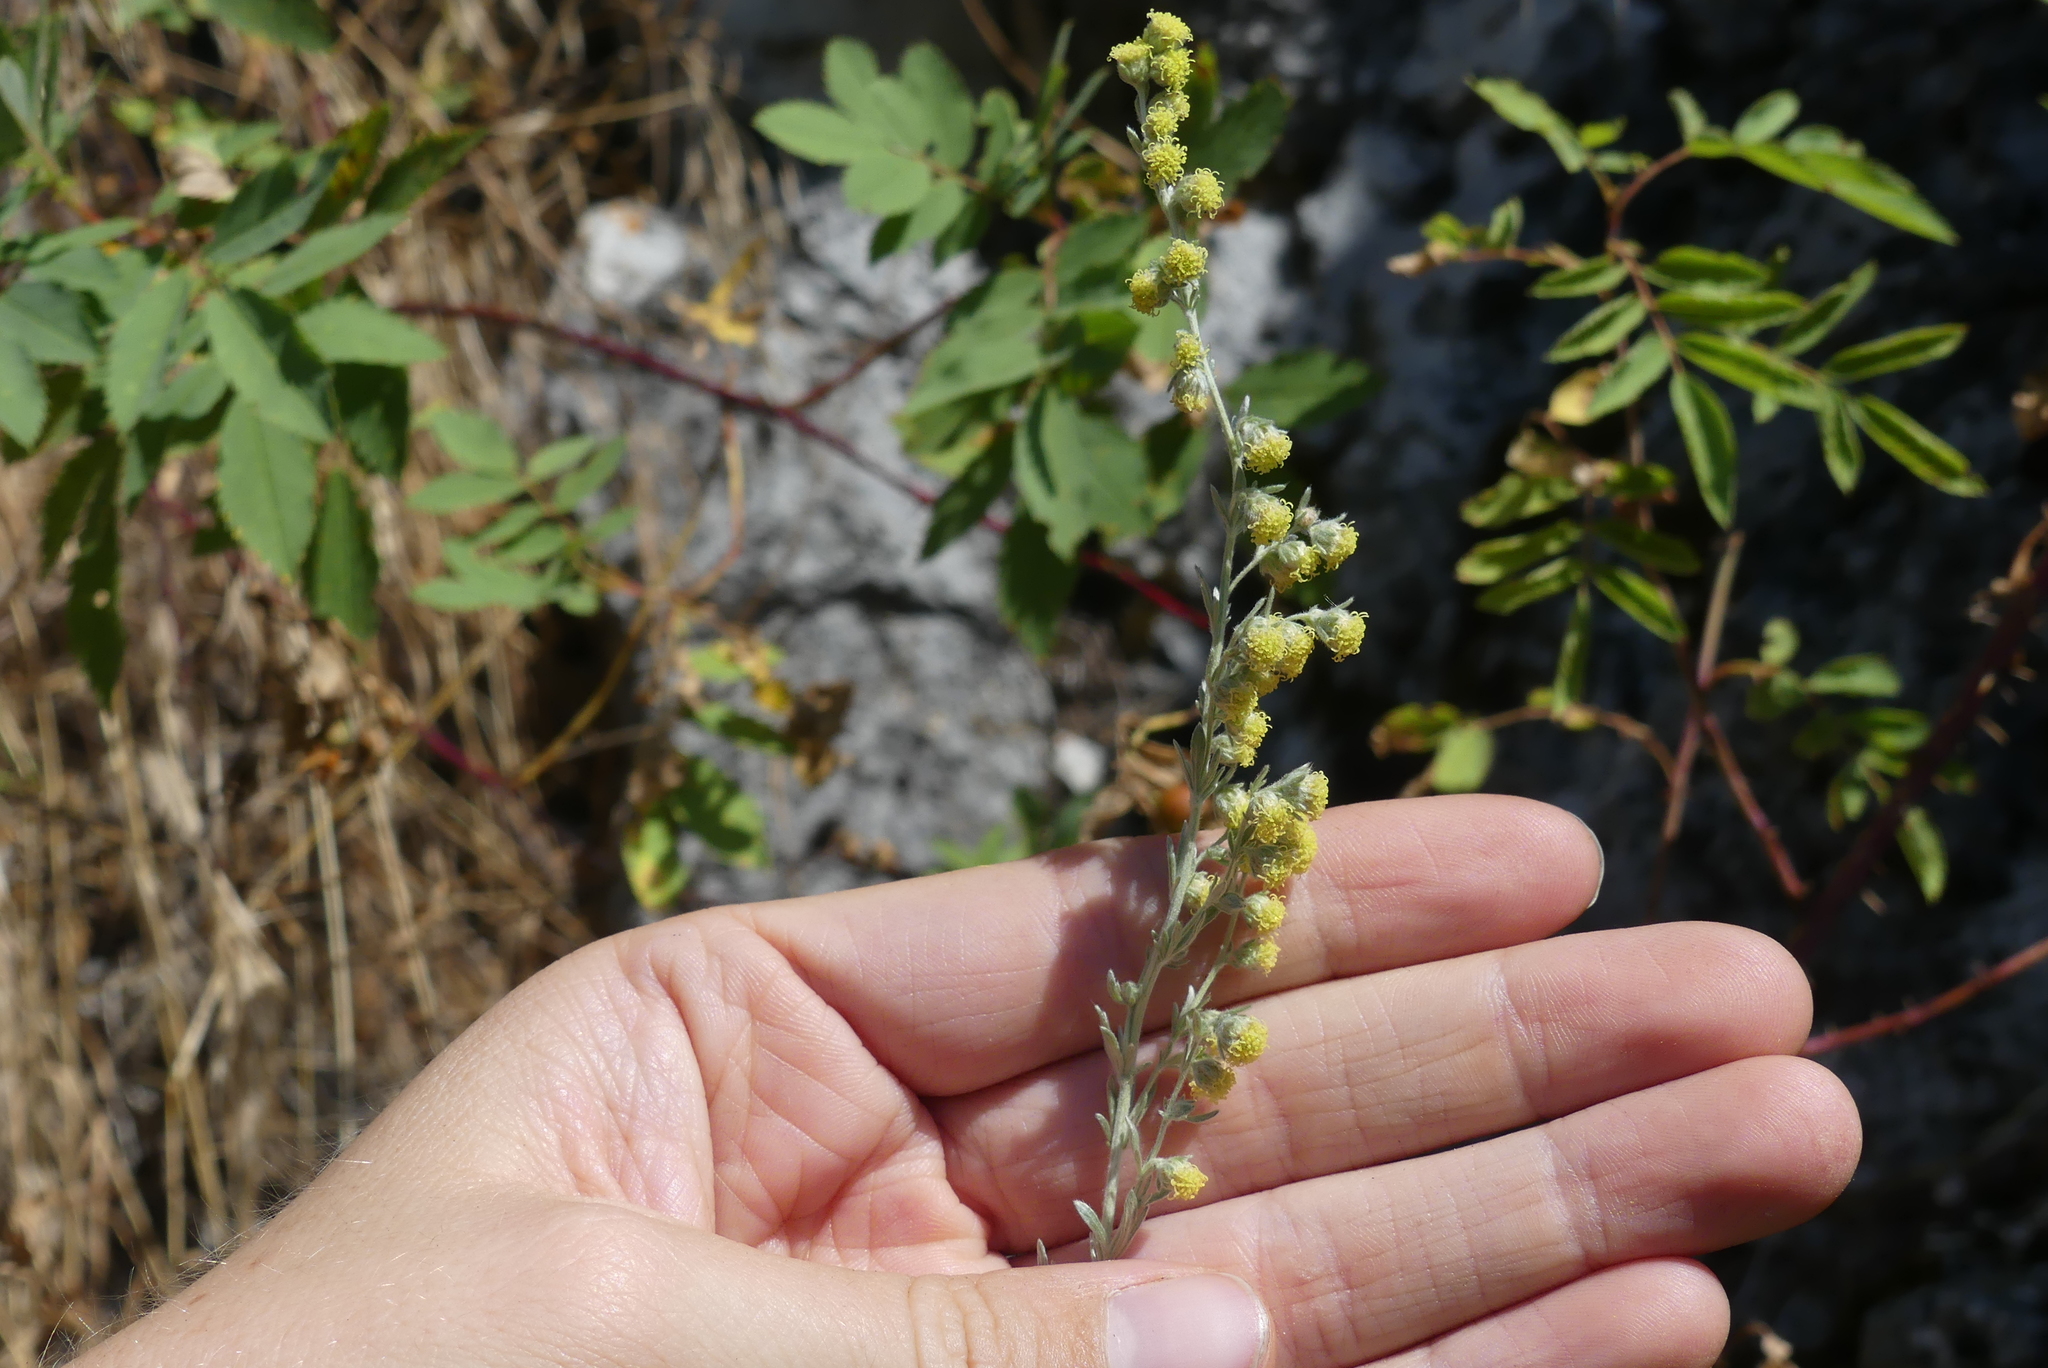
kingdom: Plantae
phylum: Tracheophyta
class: Magnoliopsida
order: Asterales
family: Asteraceae
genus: Artemisia
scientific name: Artemisia frigida
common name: Prairie sagewort
